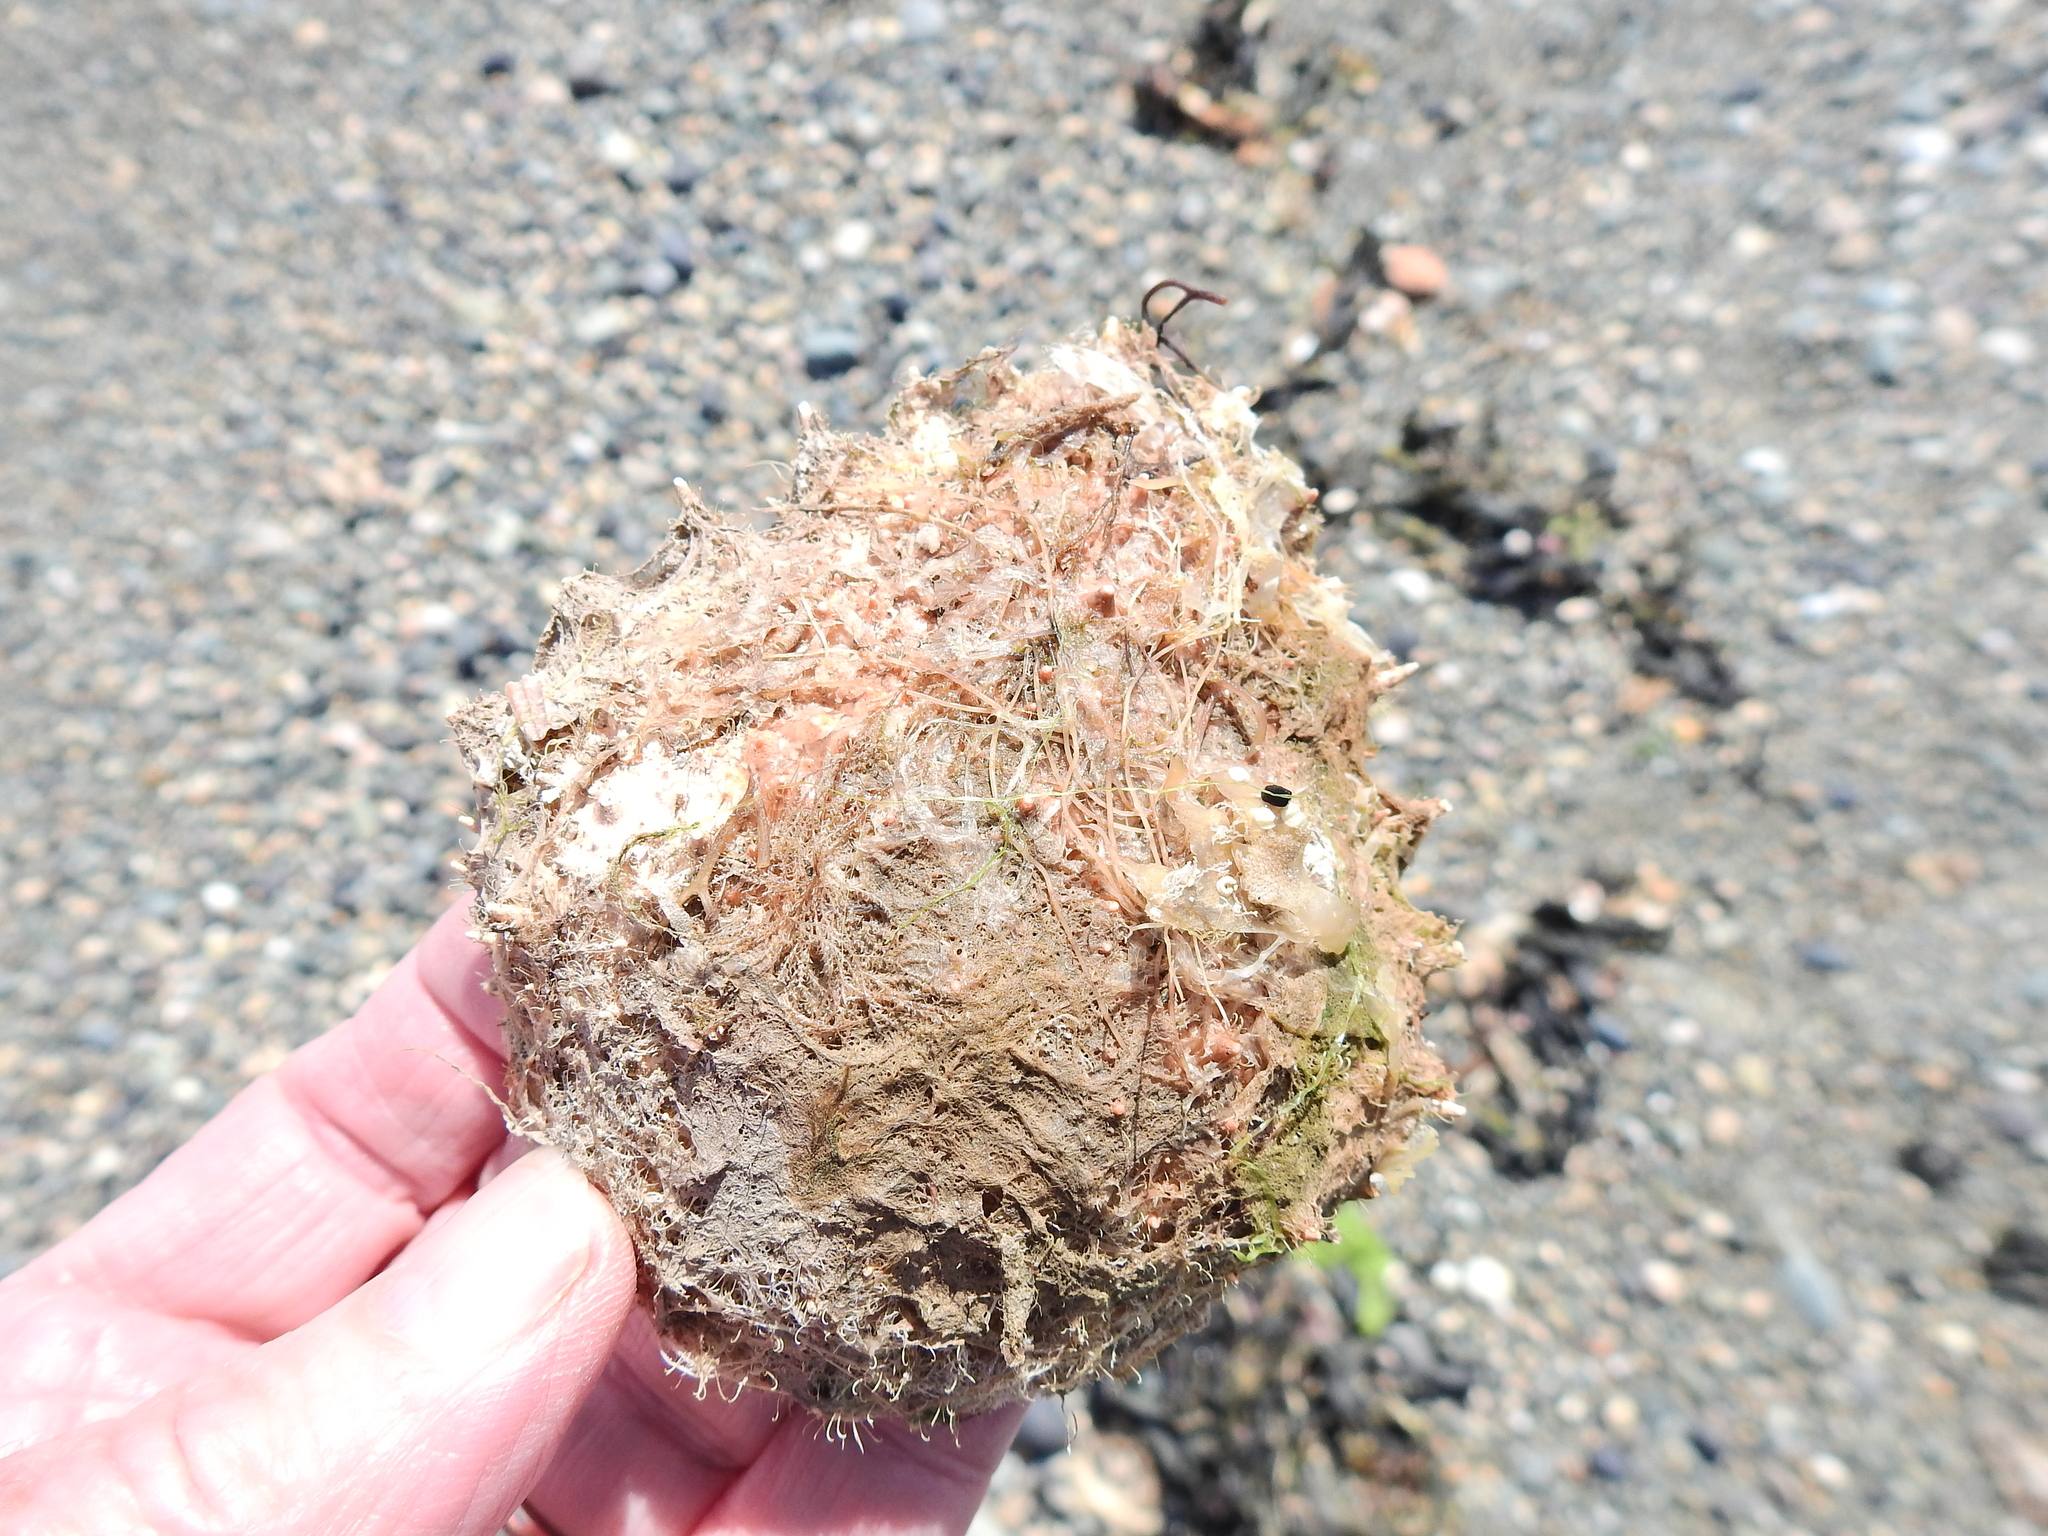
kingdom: Animalia
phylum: Arthropoda
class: Malacostraca
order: Decapoda
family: Majidae
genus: Maja
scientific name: Maja brachydactyla
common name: Common spider crab
